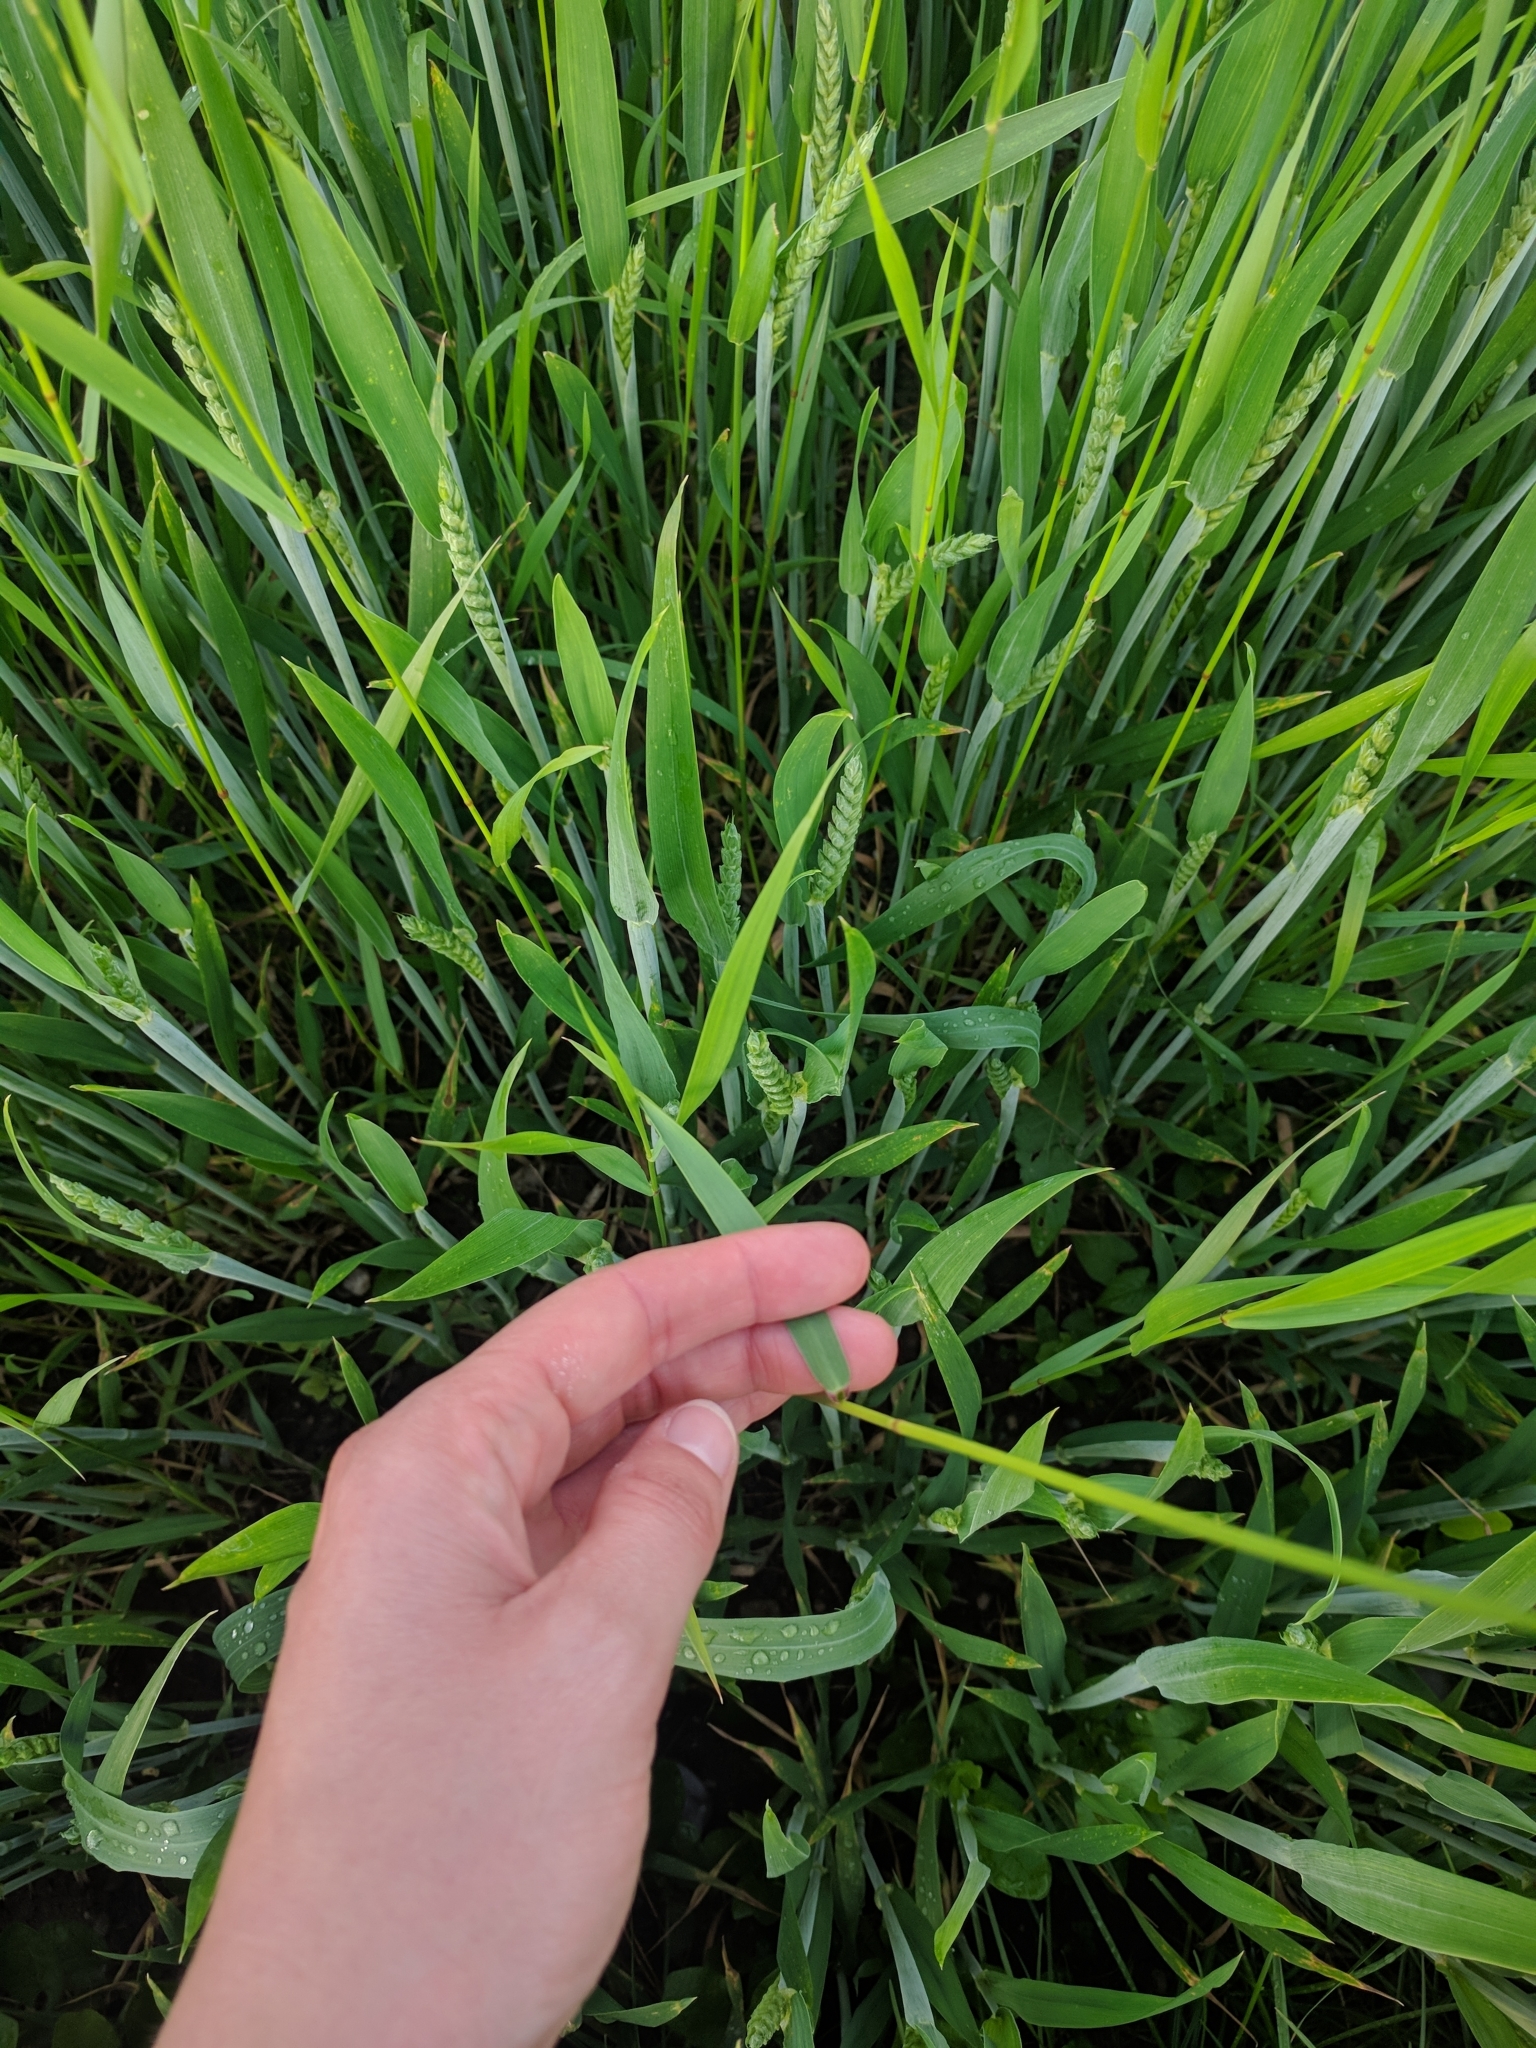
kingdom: Plantae
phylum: Tracheophyta
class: Liliopsida
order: Poales
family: Poaceae
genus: Elymus
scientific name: Elymus repens
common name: Quackgrass
